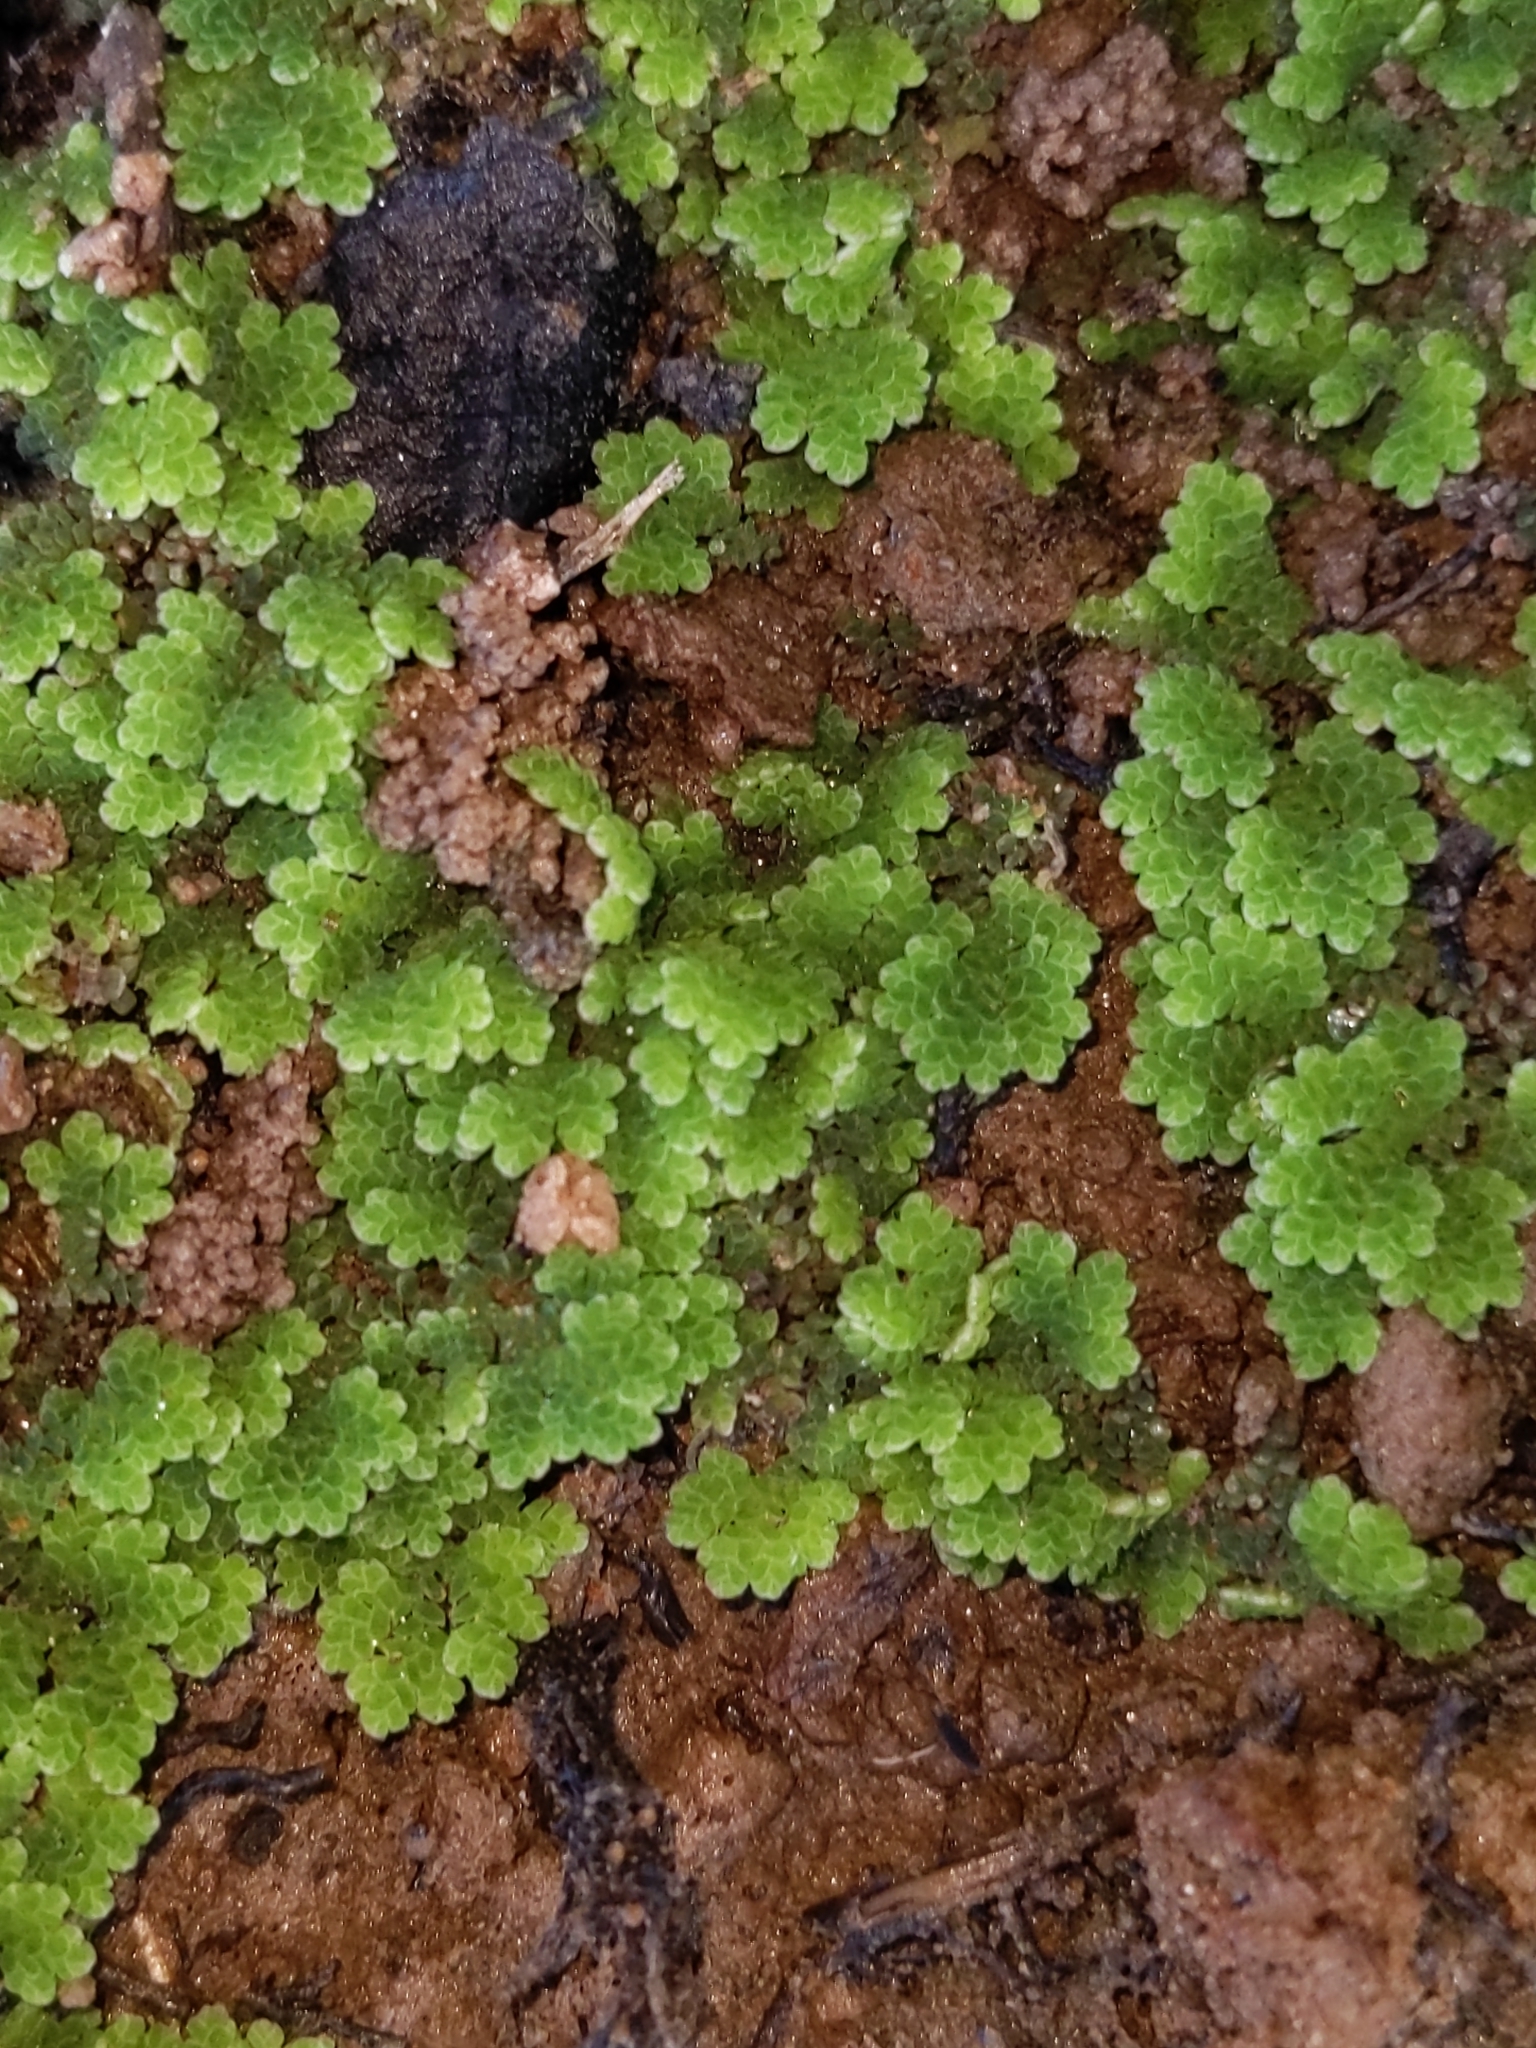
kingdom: Plantae
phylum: Tracheophyta
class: Polypodiopsida
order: Salviniales
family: Salviniaceae
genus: Azolla
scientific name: Azolla cristata
